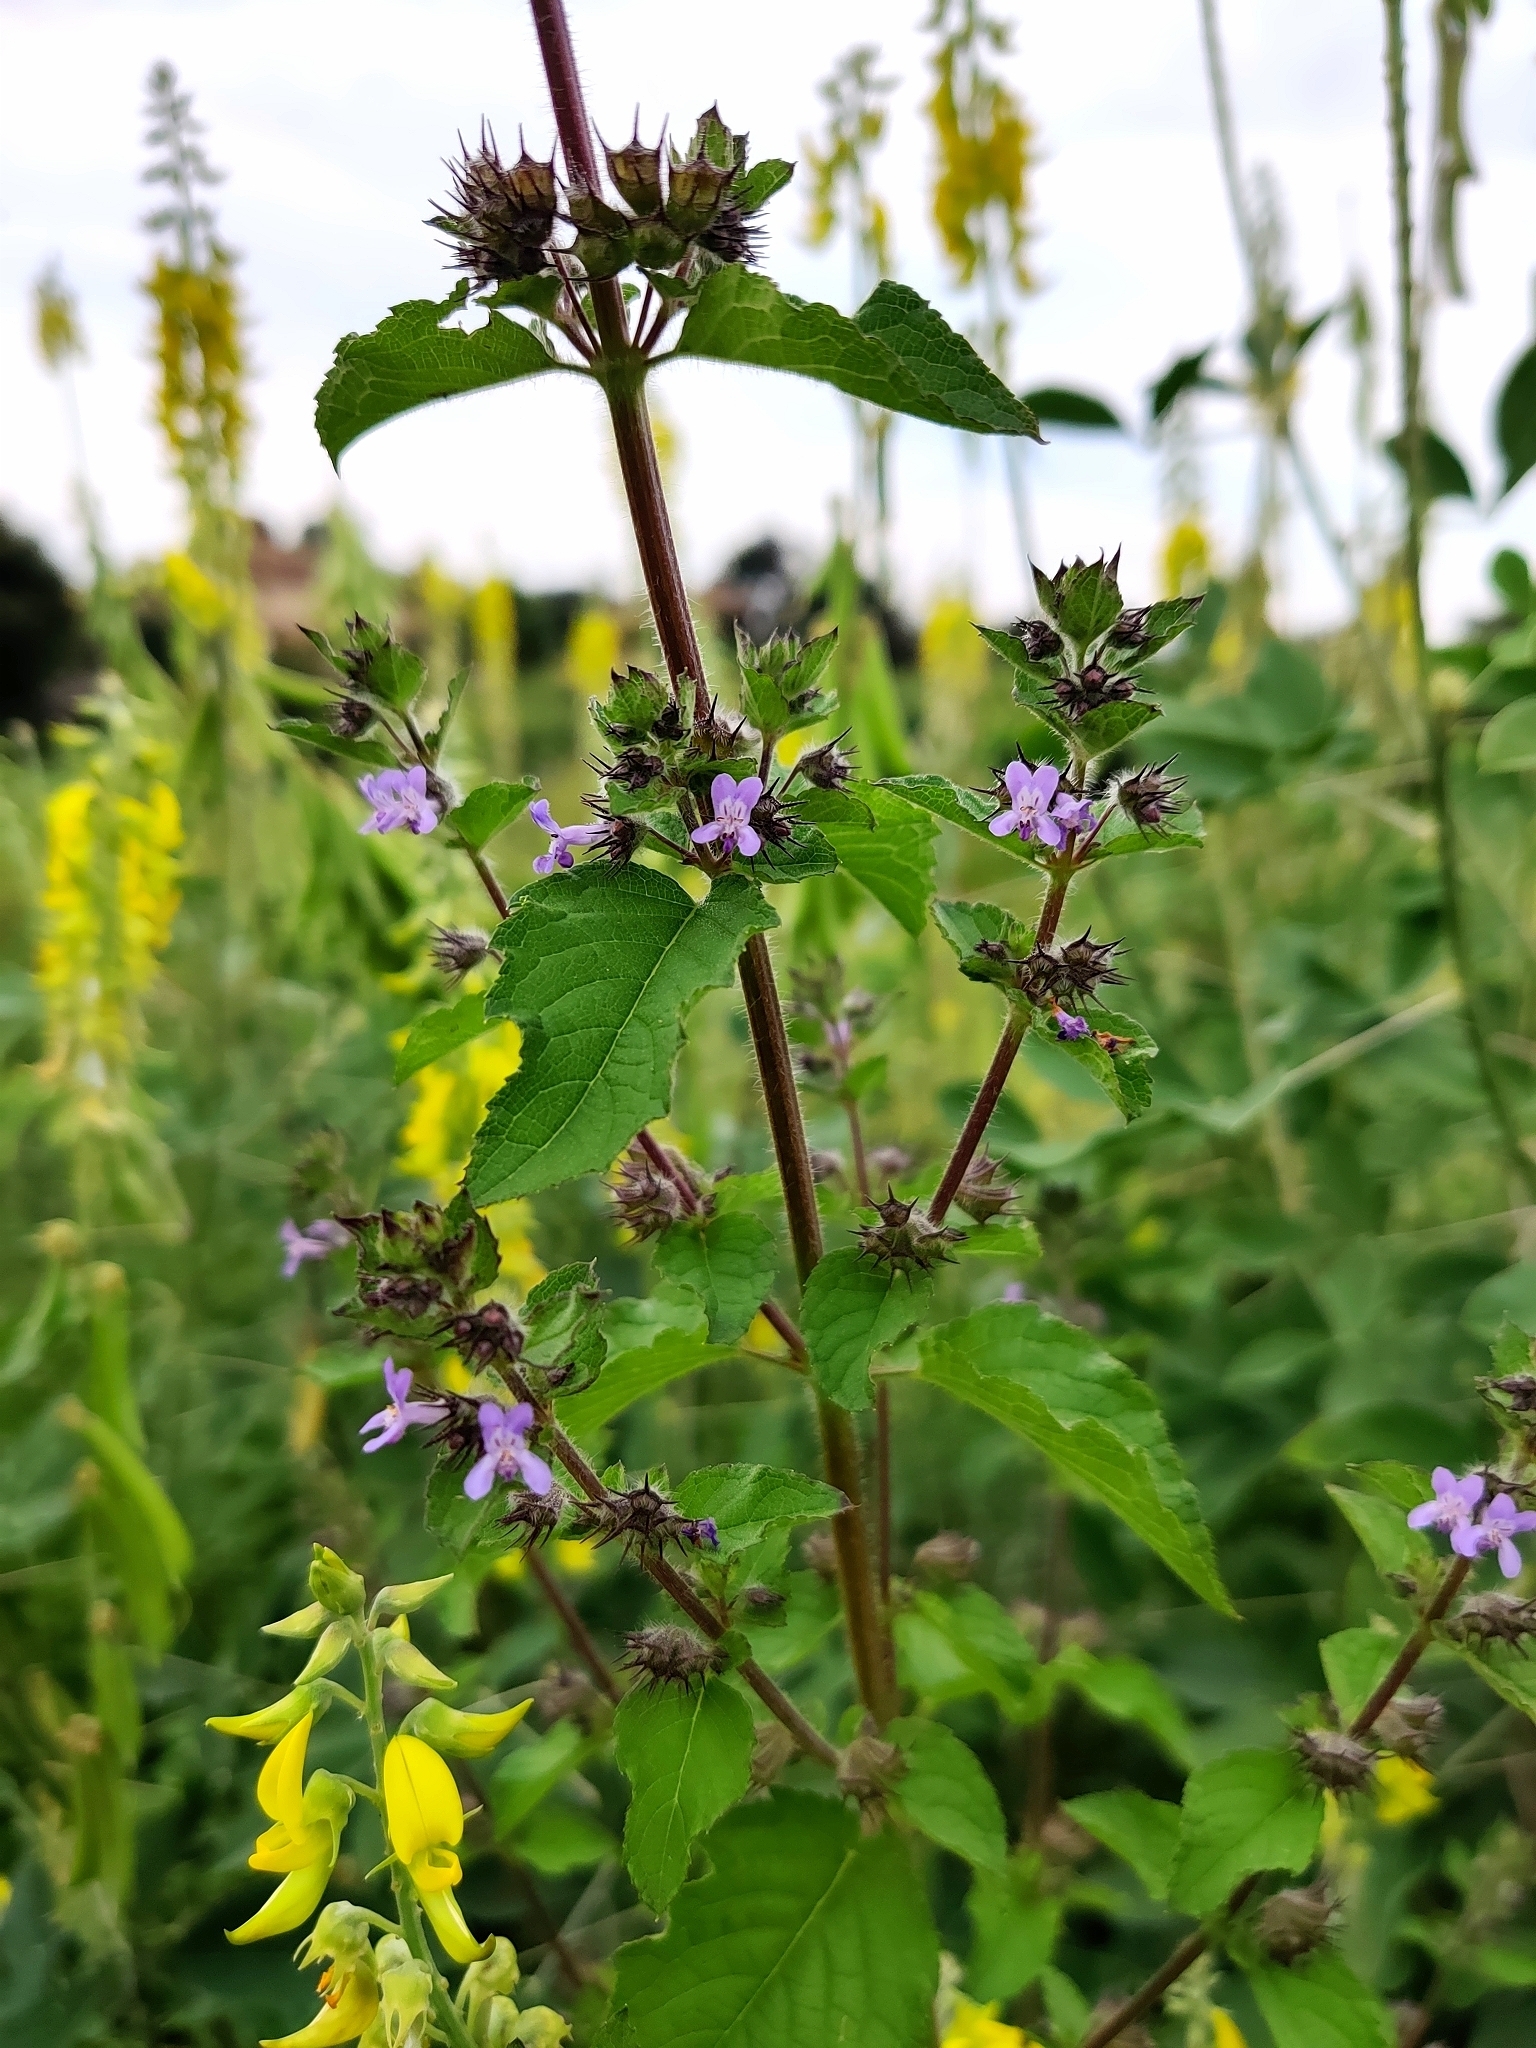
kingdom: Plantae
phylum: Tracheophyta
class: Magnoliopsida
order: Lamiales
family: Lamiaceae
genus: Mesosphaerum
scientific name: Mesosphaerum suaveolens
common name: Pignut
